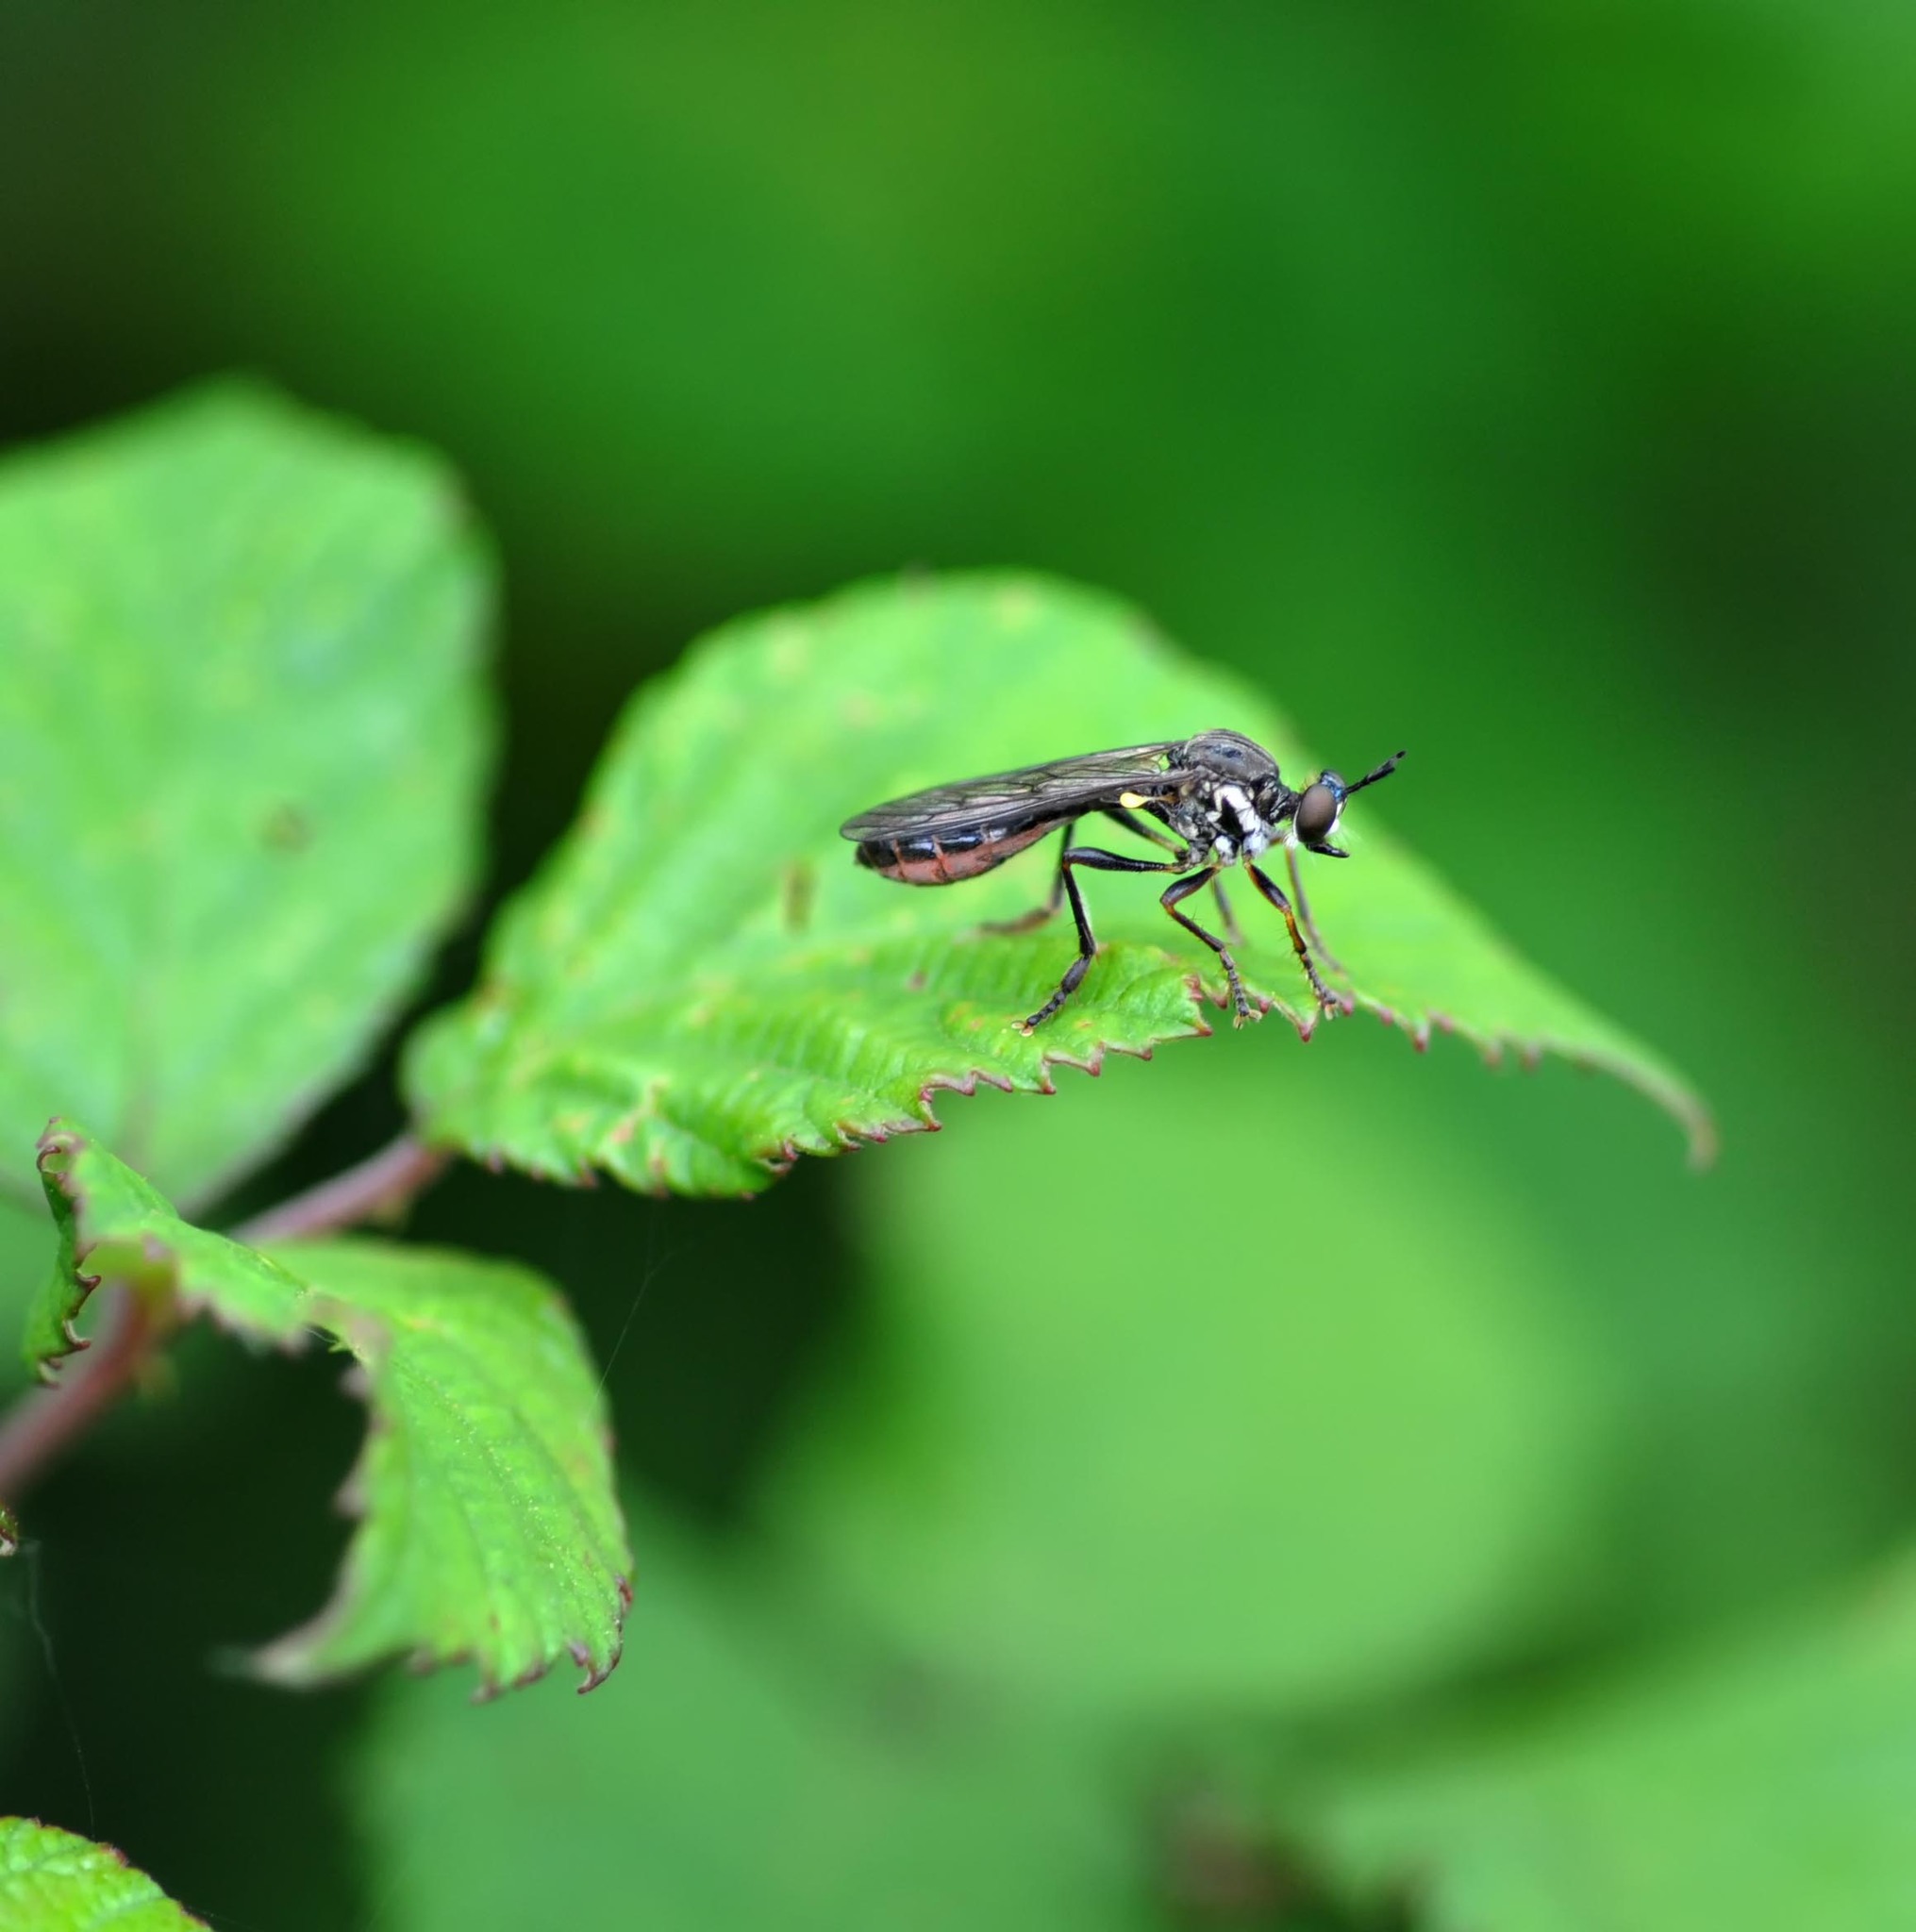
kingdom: Animalia
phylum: Arthropoda
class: Insecta
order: Diptera
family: Asilidae
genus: Dioctria
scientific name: Dioctria hyalipennis
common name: Stripe-legged robberfly
